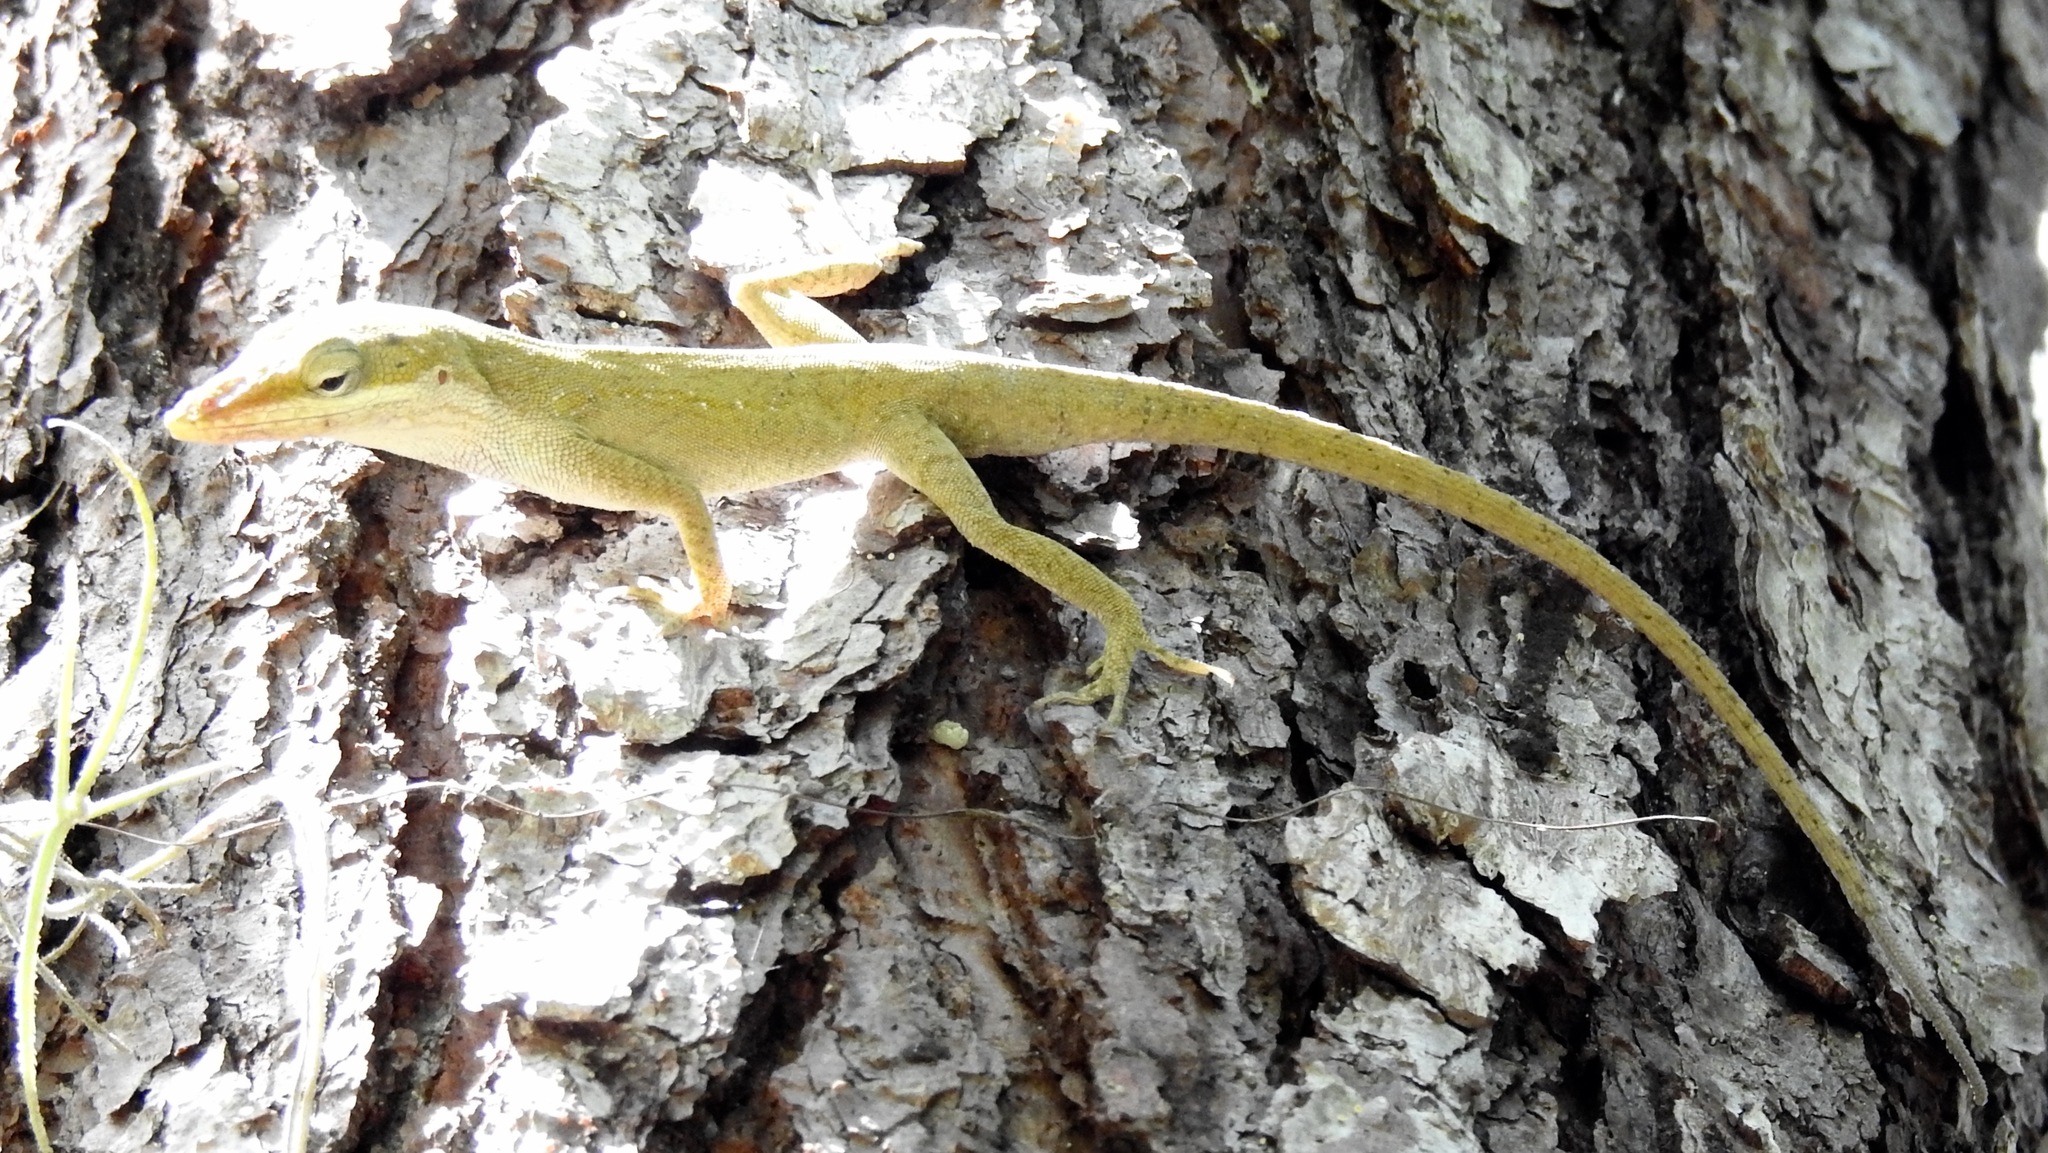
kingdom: Animalia
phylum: Chordata
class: Squamata
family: Dactyloidae
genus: Anolis
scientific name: Anolis carolinensis
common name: Green anole
